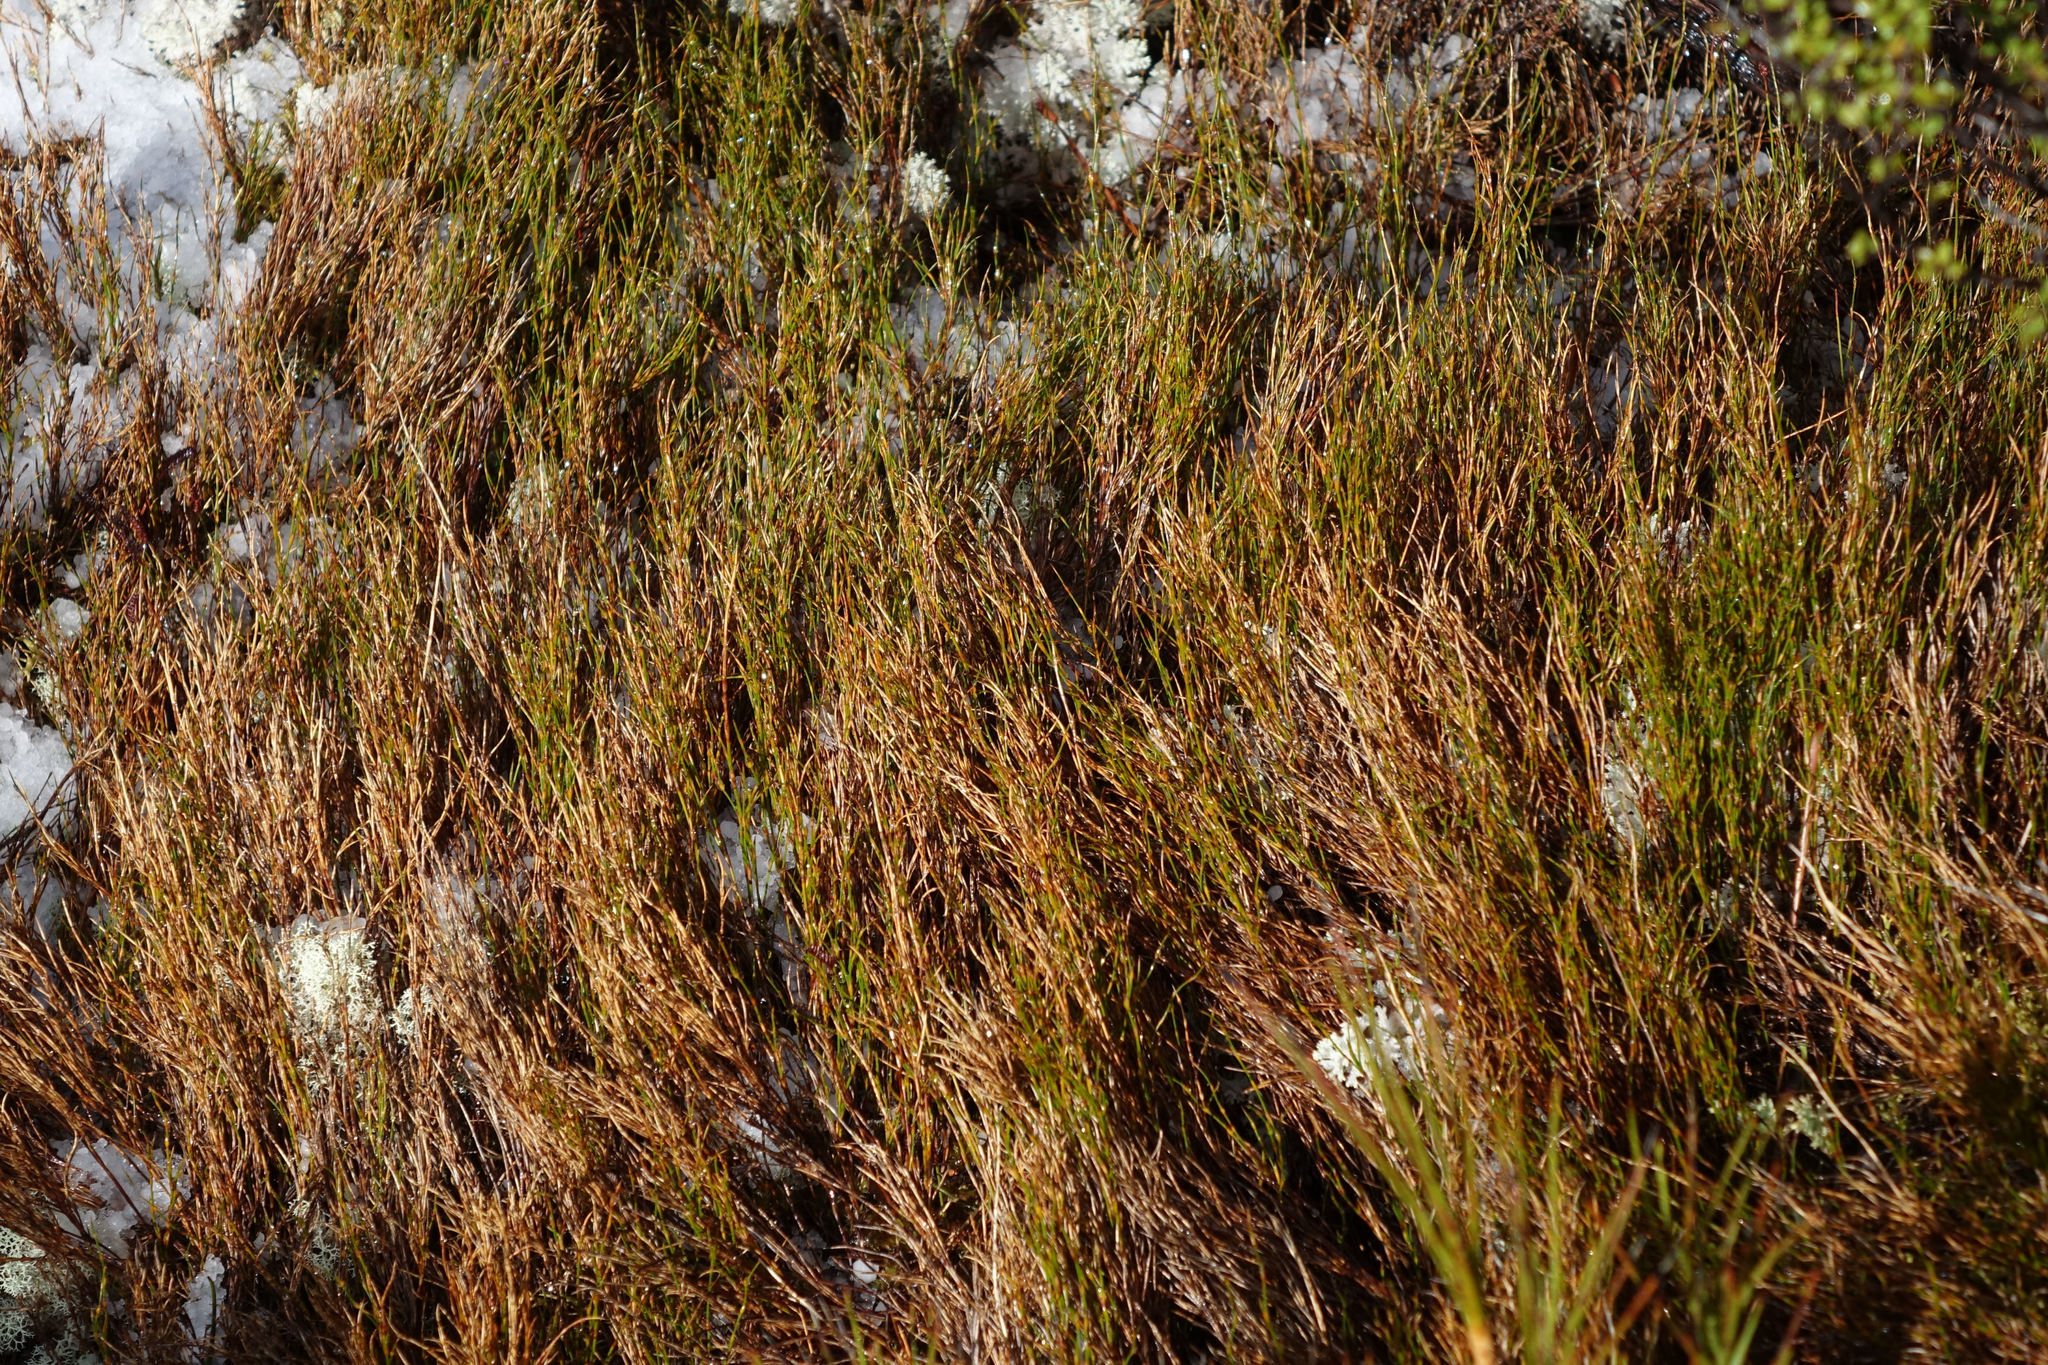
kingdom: Plantae
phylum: Tracheophyta
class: Liliopsida
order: Poales
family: Restionaceae
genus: Empodisma
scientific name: Empodisma minus
